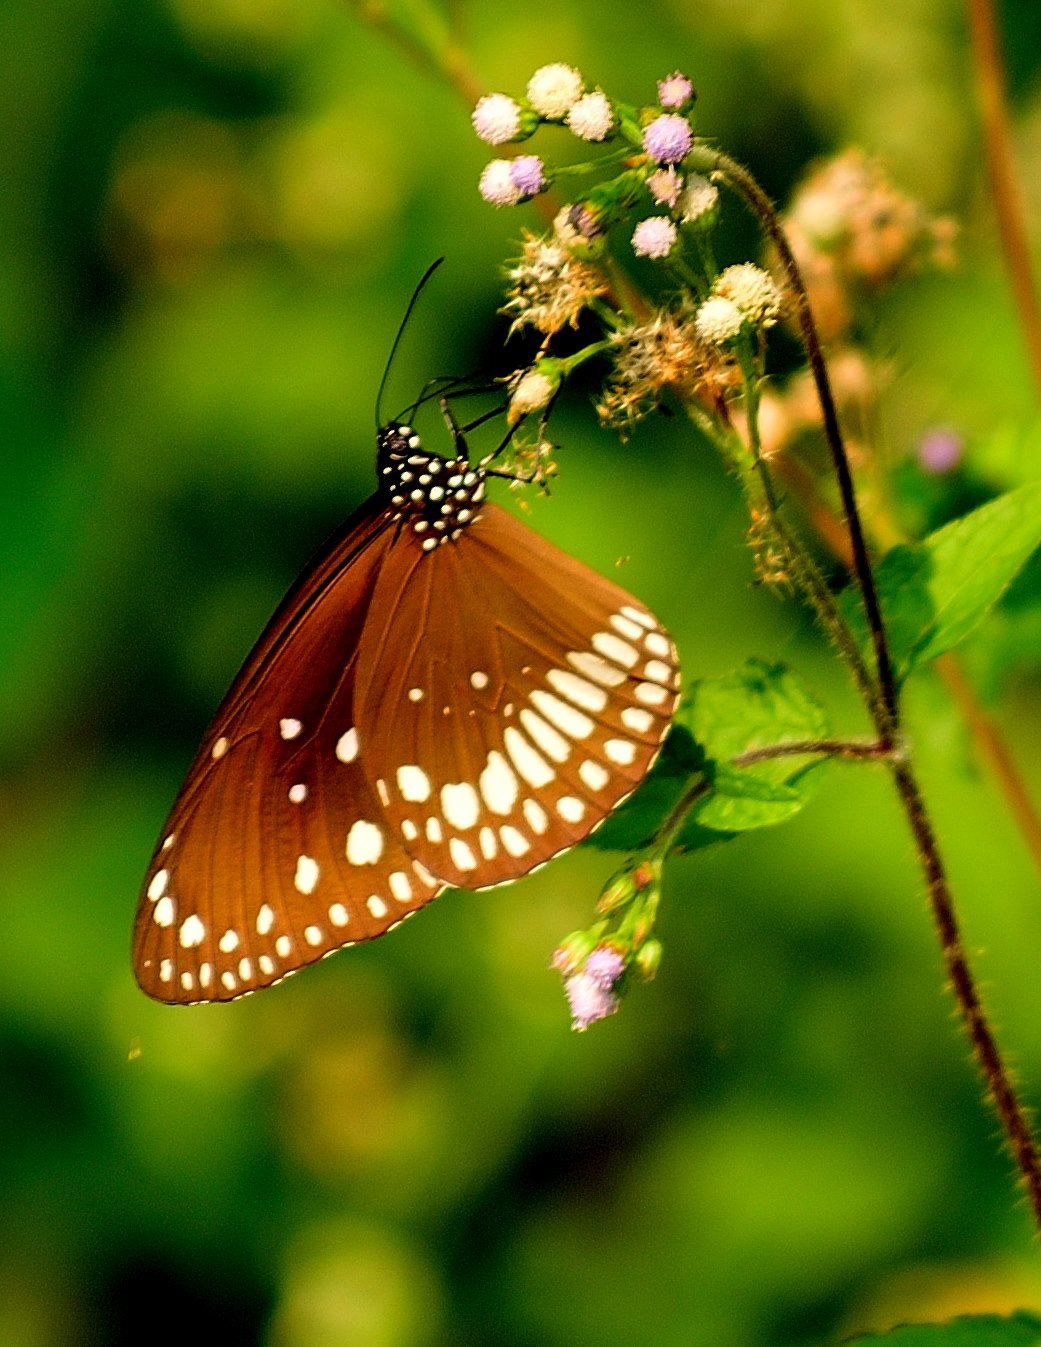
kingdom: Animalia
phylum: Arthropoda
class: Insecta
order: Lepidoptera
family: Nymphalidae
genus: Euploea
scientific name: Euploea core
